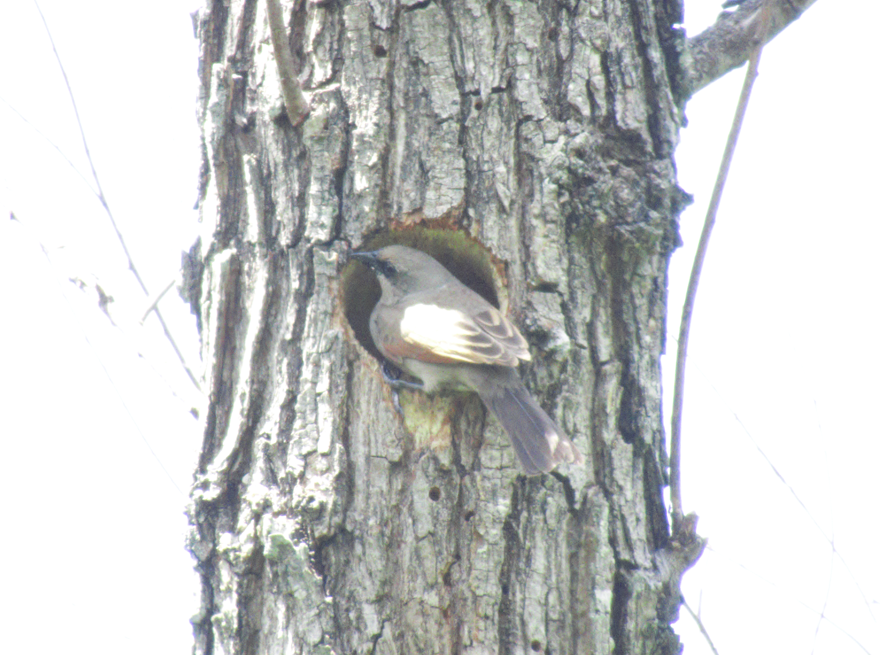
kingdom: Animalia
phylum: Chordata
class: Aves
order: Passeriformes
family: Icteridae
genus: Agelaioides
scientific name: Agelaioides badius
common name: Baywing
